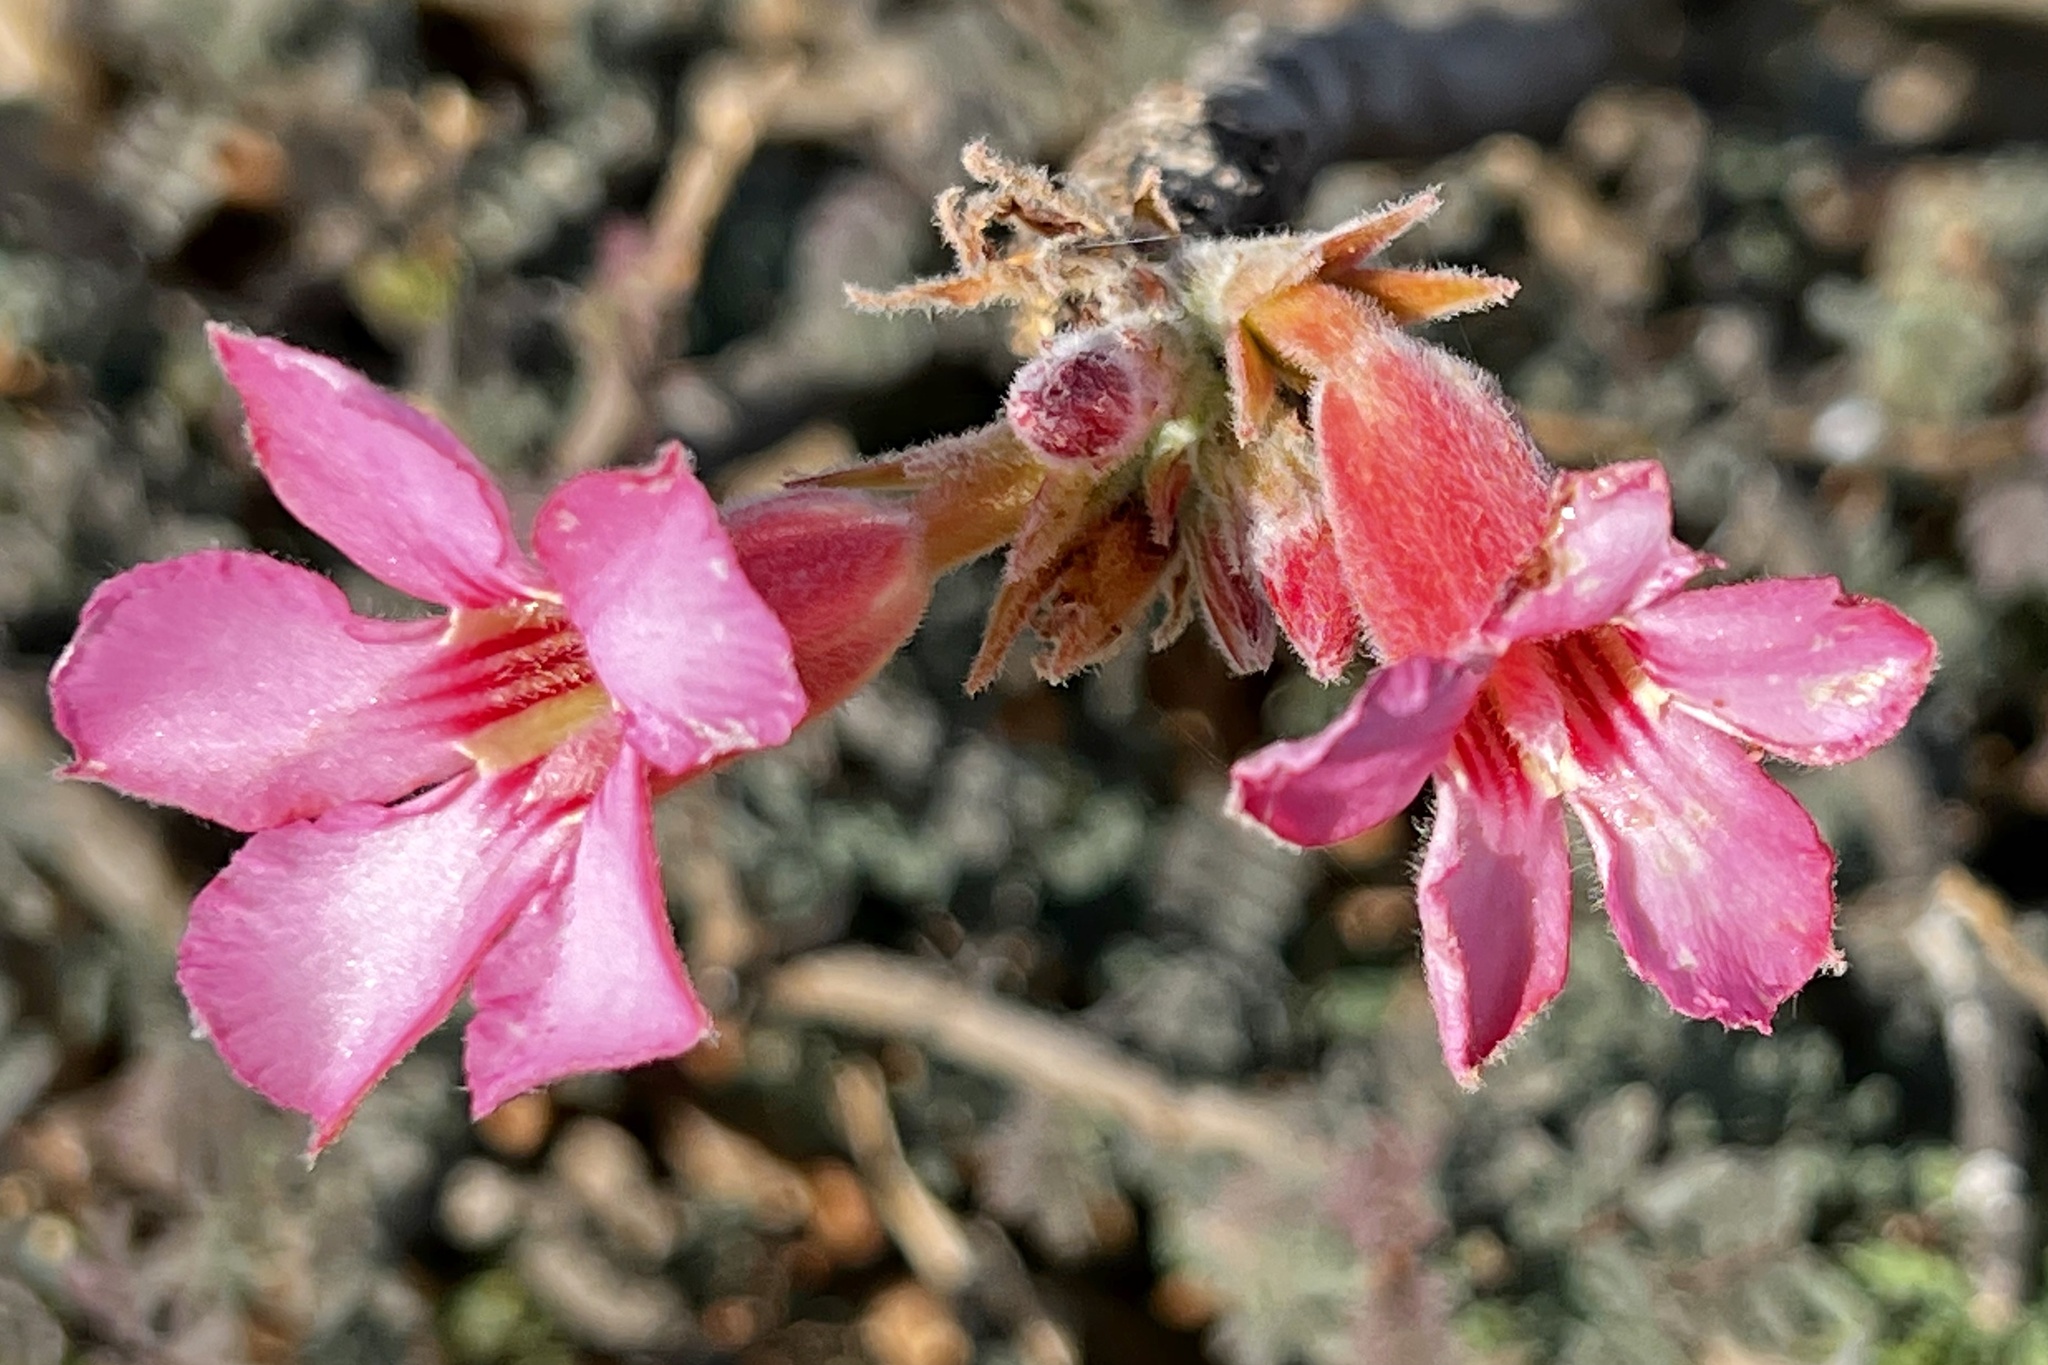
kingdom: Plantae
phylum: Tracheophyta
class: Magnoliopsida
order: Gentianales
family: Apocynaceae
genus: Adenium
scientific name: Adenium obesum
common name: Desert-rose
